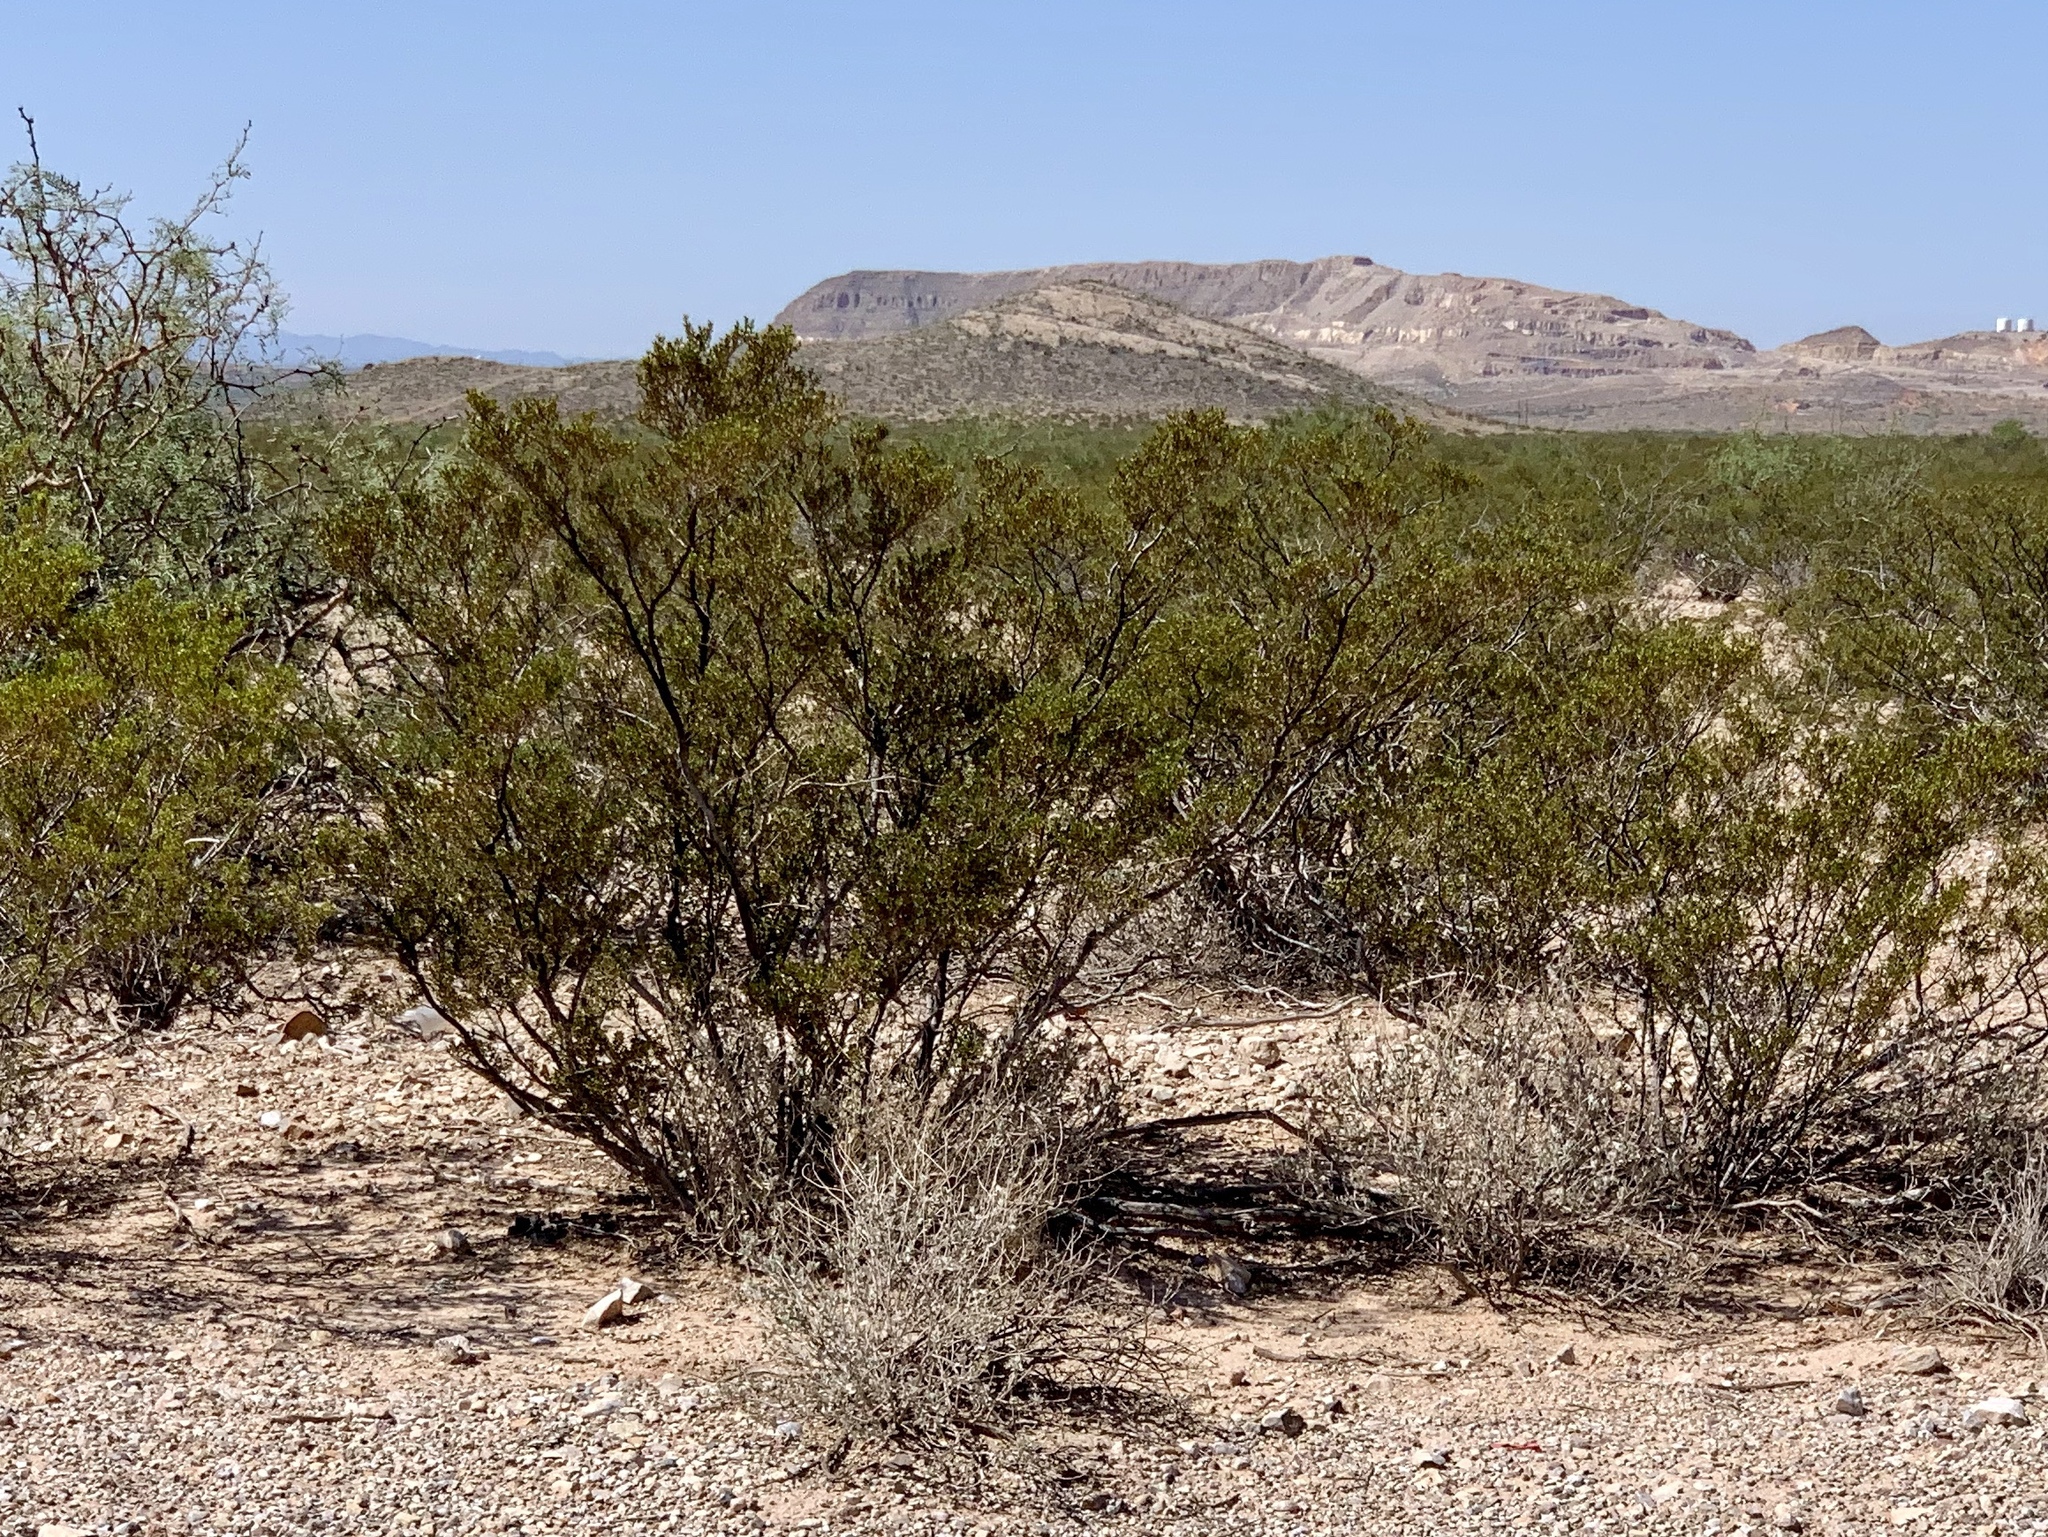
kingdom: Plantae
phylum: Tracheophyta
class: Magnoliopsida
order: Zygophyllales
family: Zygophyllaceae
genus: Larrea
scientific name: Larrea tridentata
